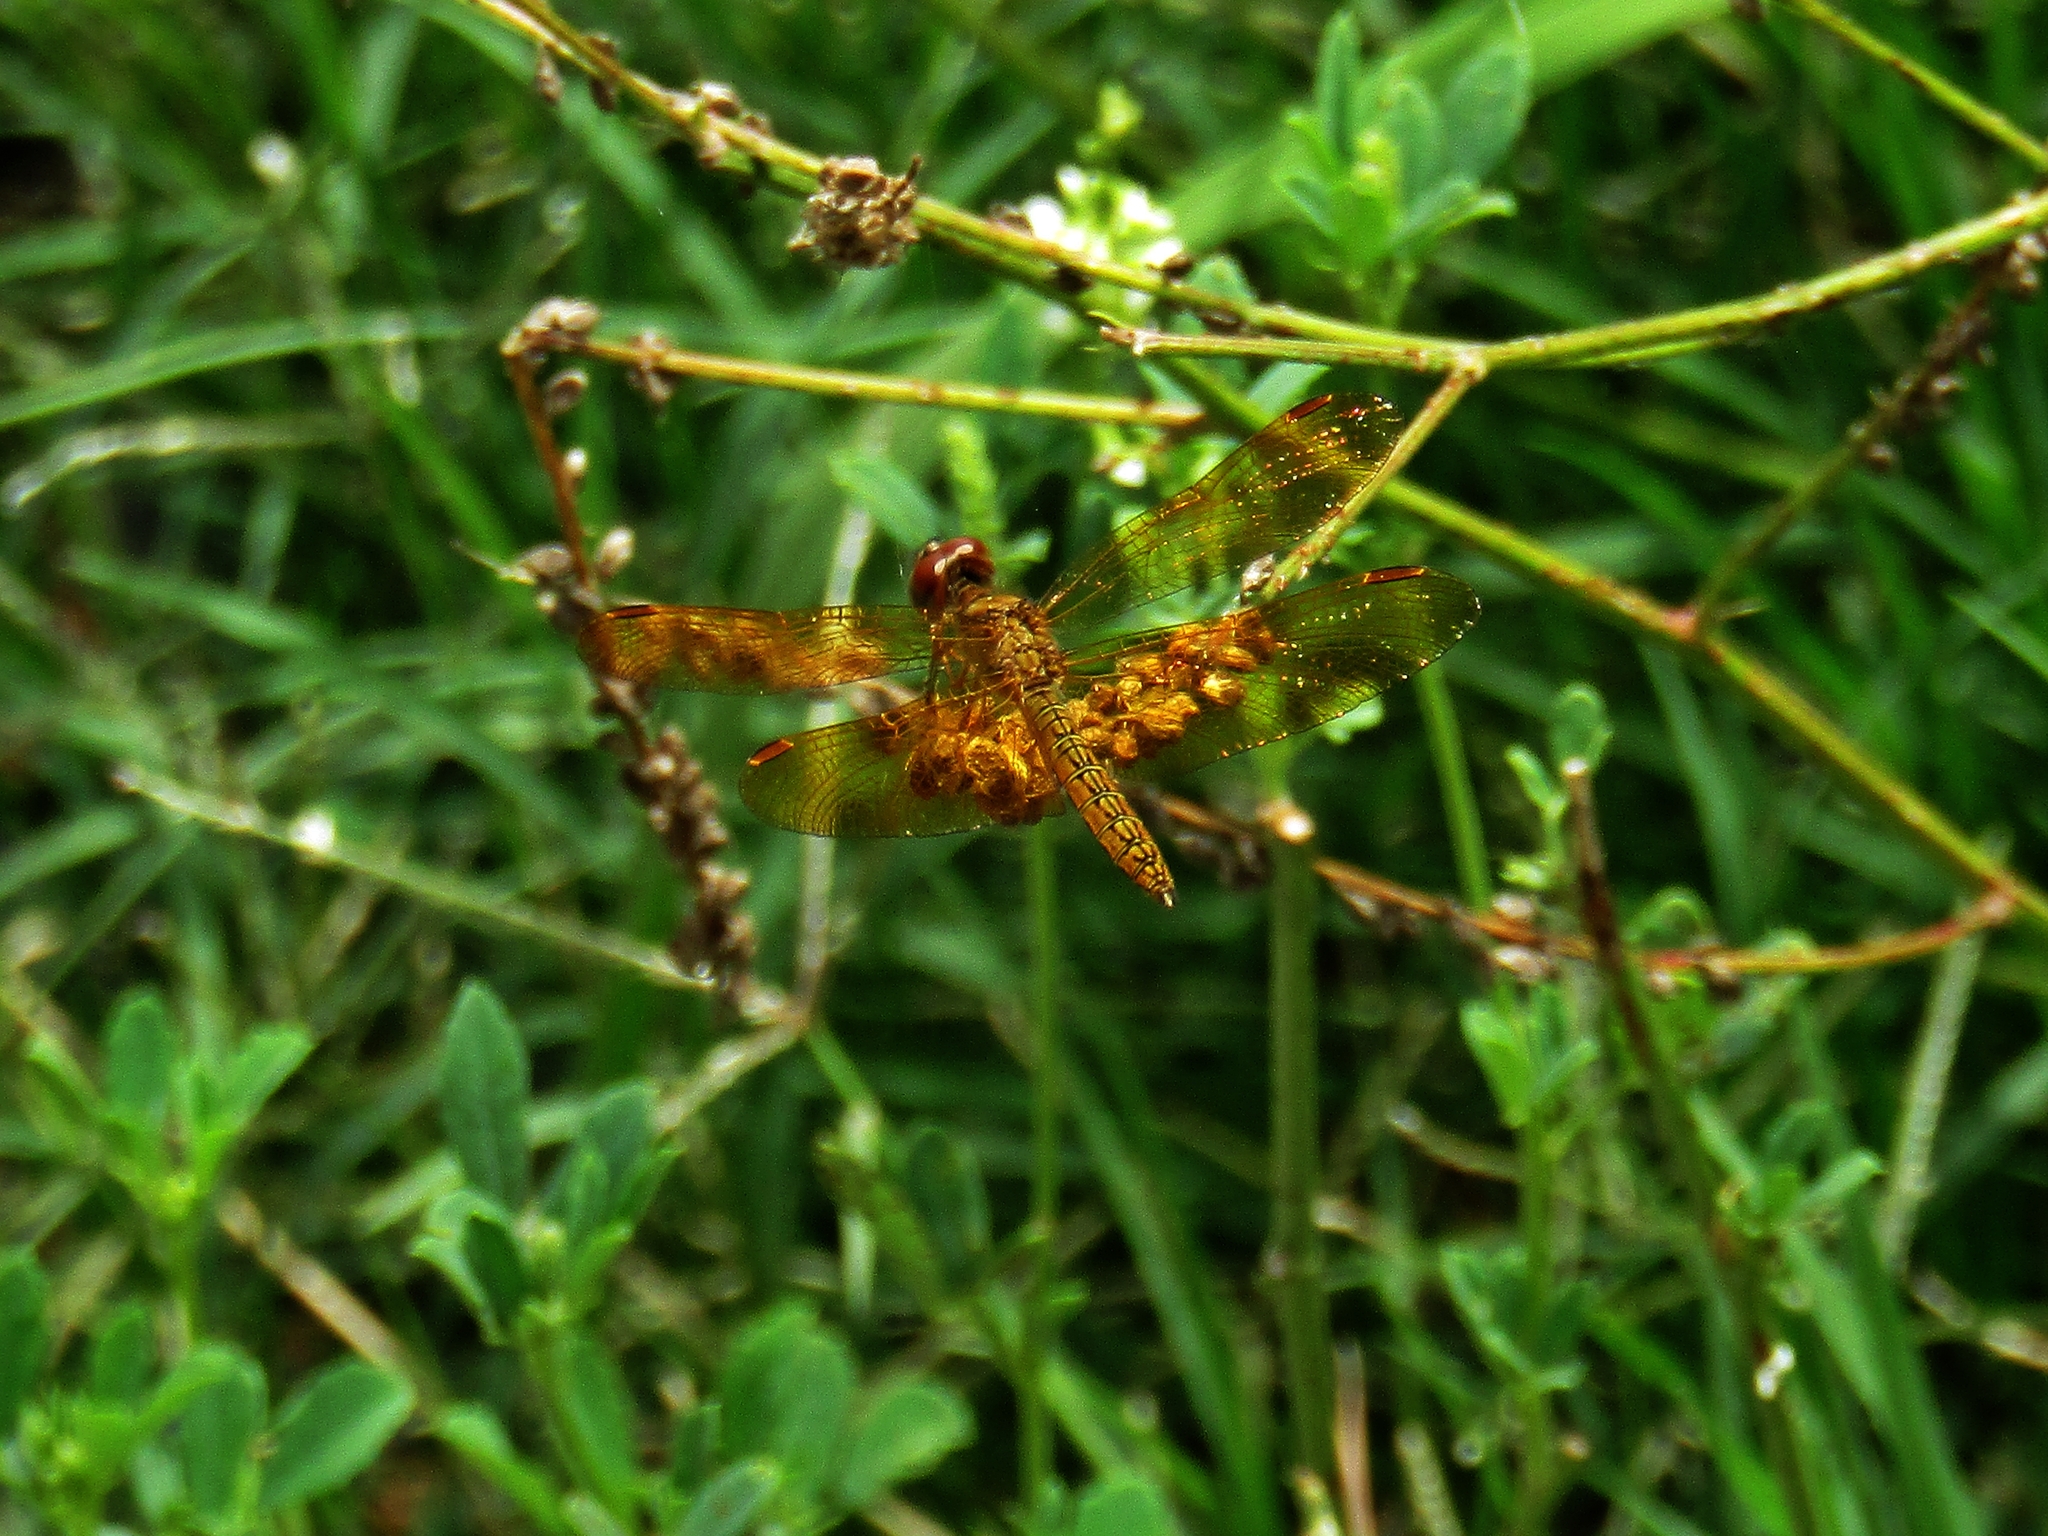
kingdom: Animalia
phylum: Arthropoda
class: Insecta
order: Odonata
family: Libellulidae
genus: Perithemis
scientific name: Perithemis icteroptera
